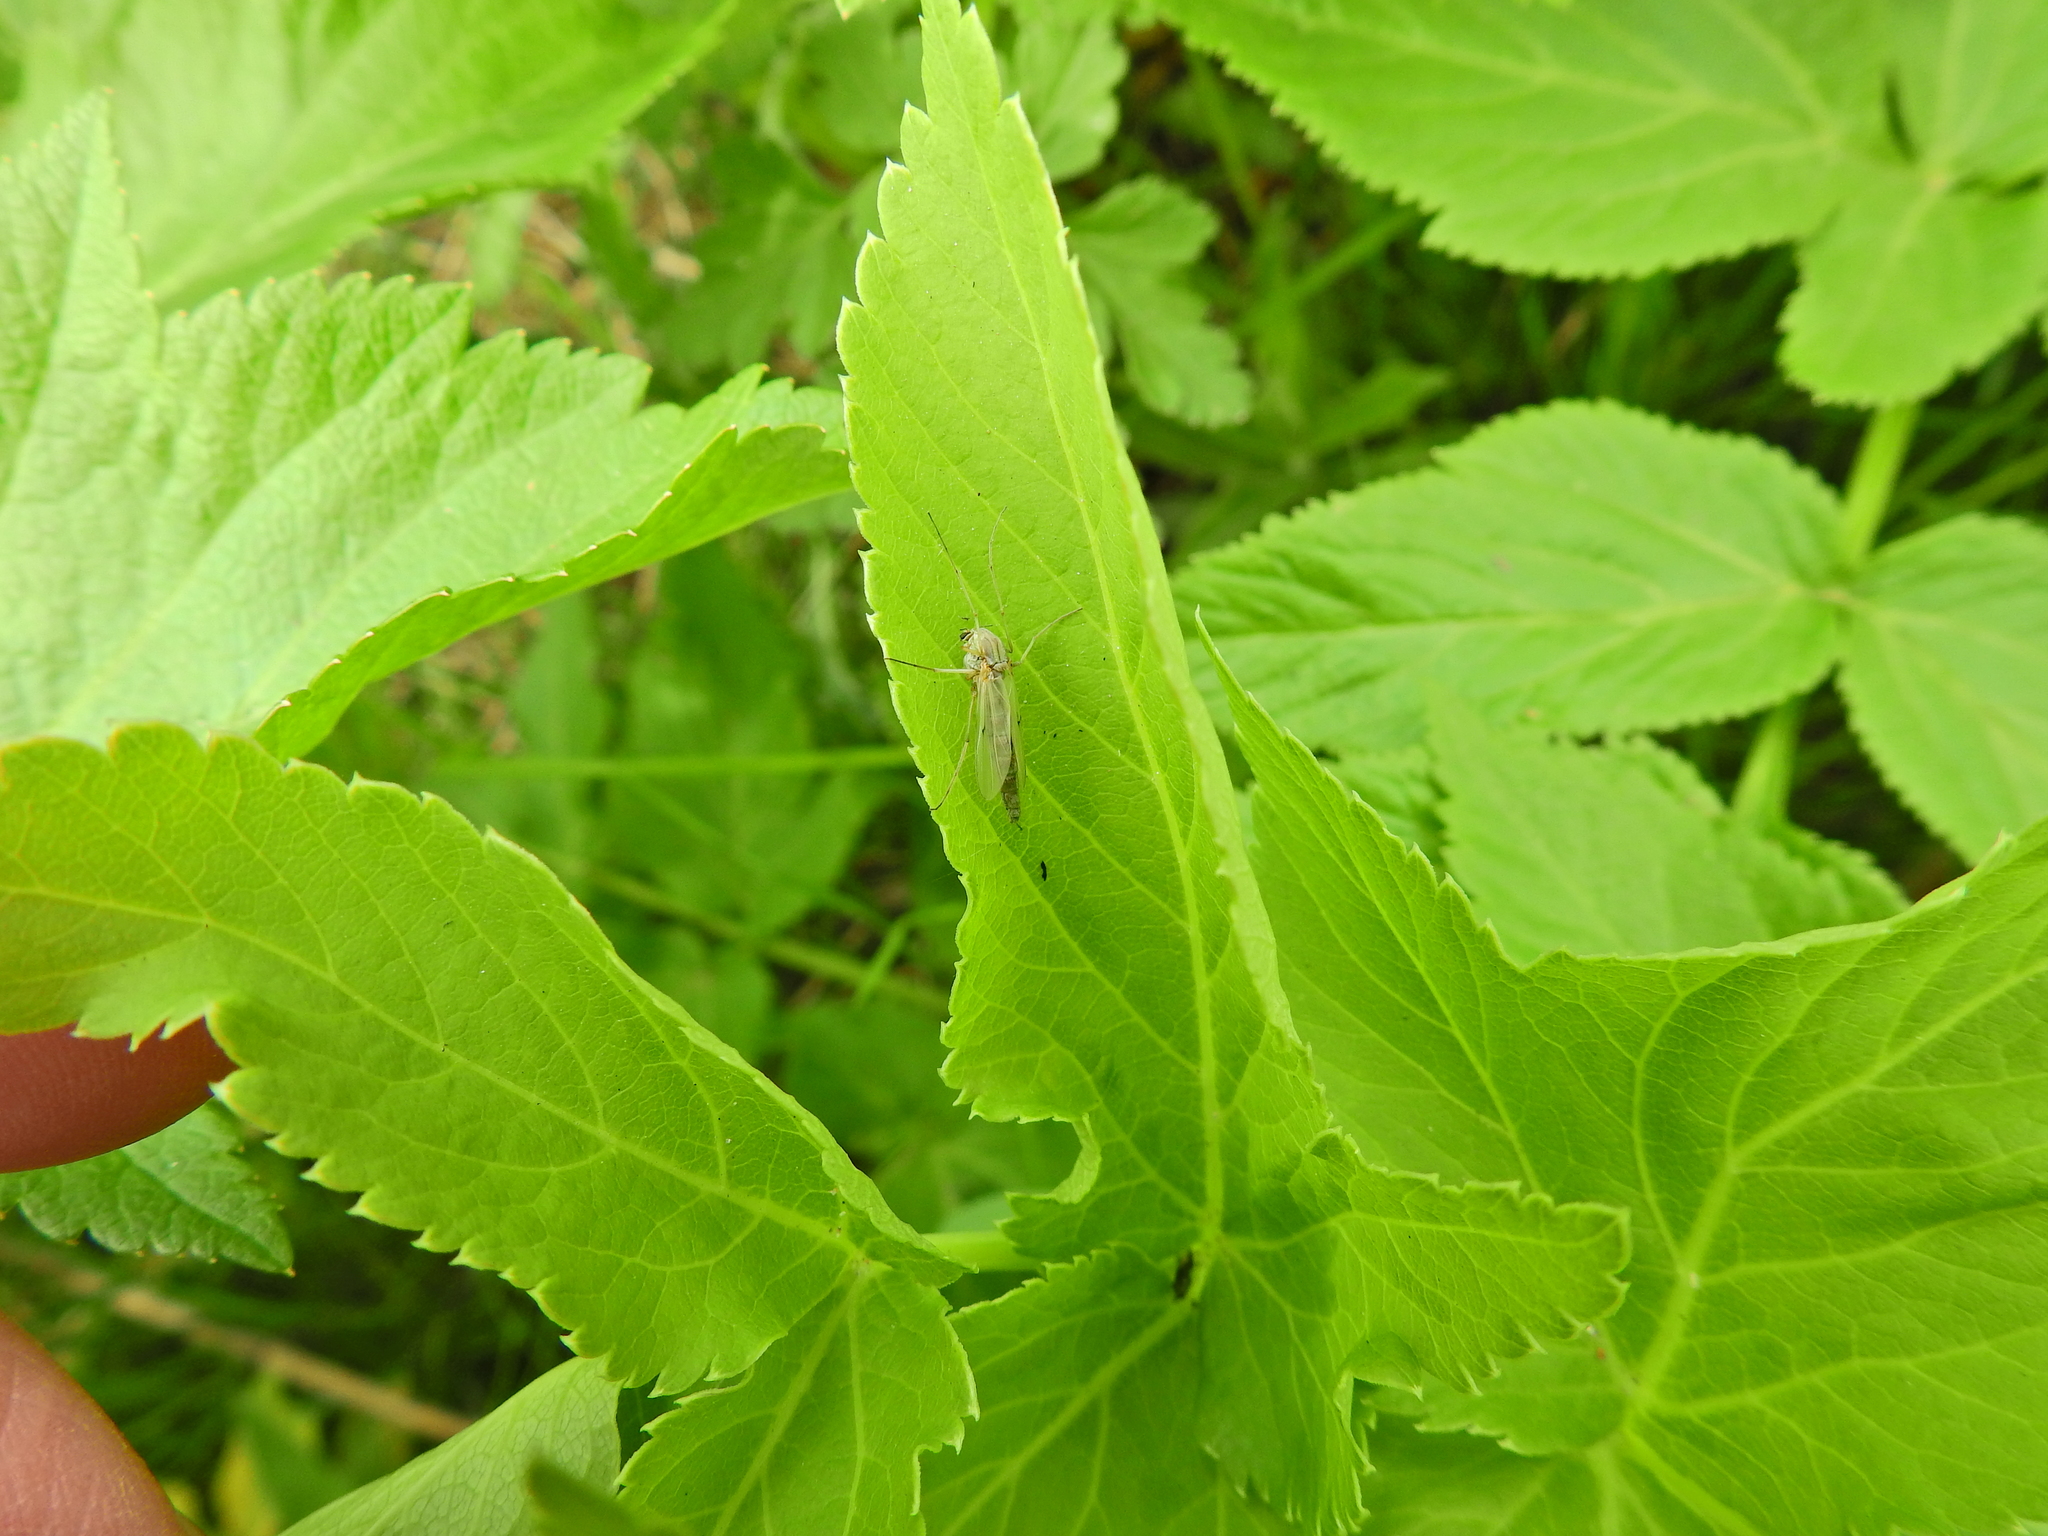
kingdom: Plantae
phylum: Tracheophyta
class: Magnoliopsida
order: Apiales
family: Apiaceae
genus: Angelica
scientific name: Angelica archangelica
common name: Garden angelica
